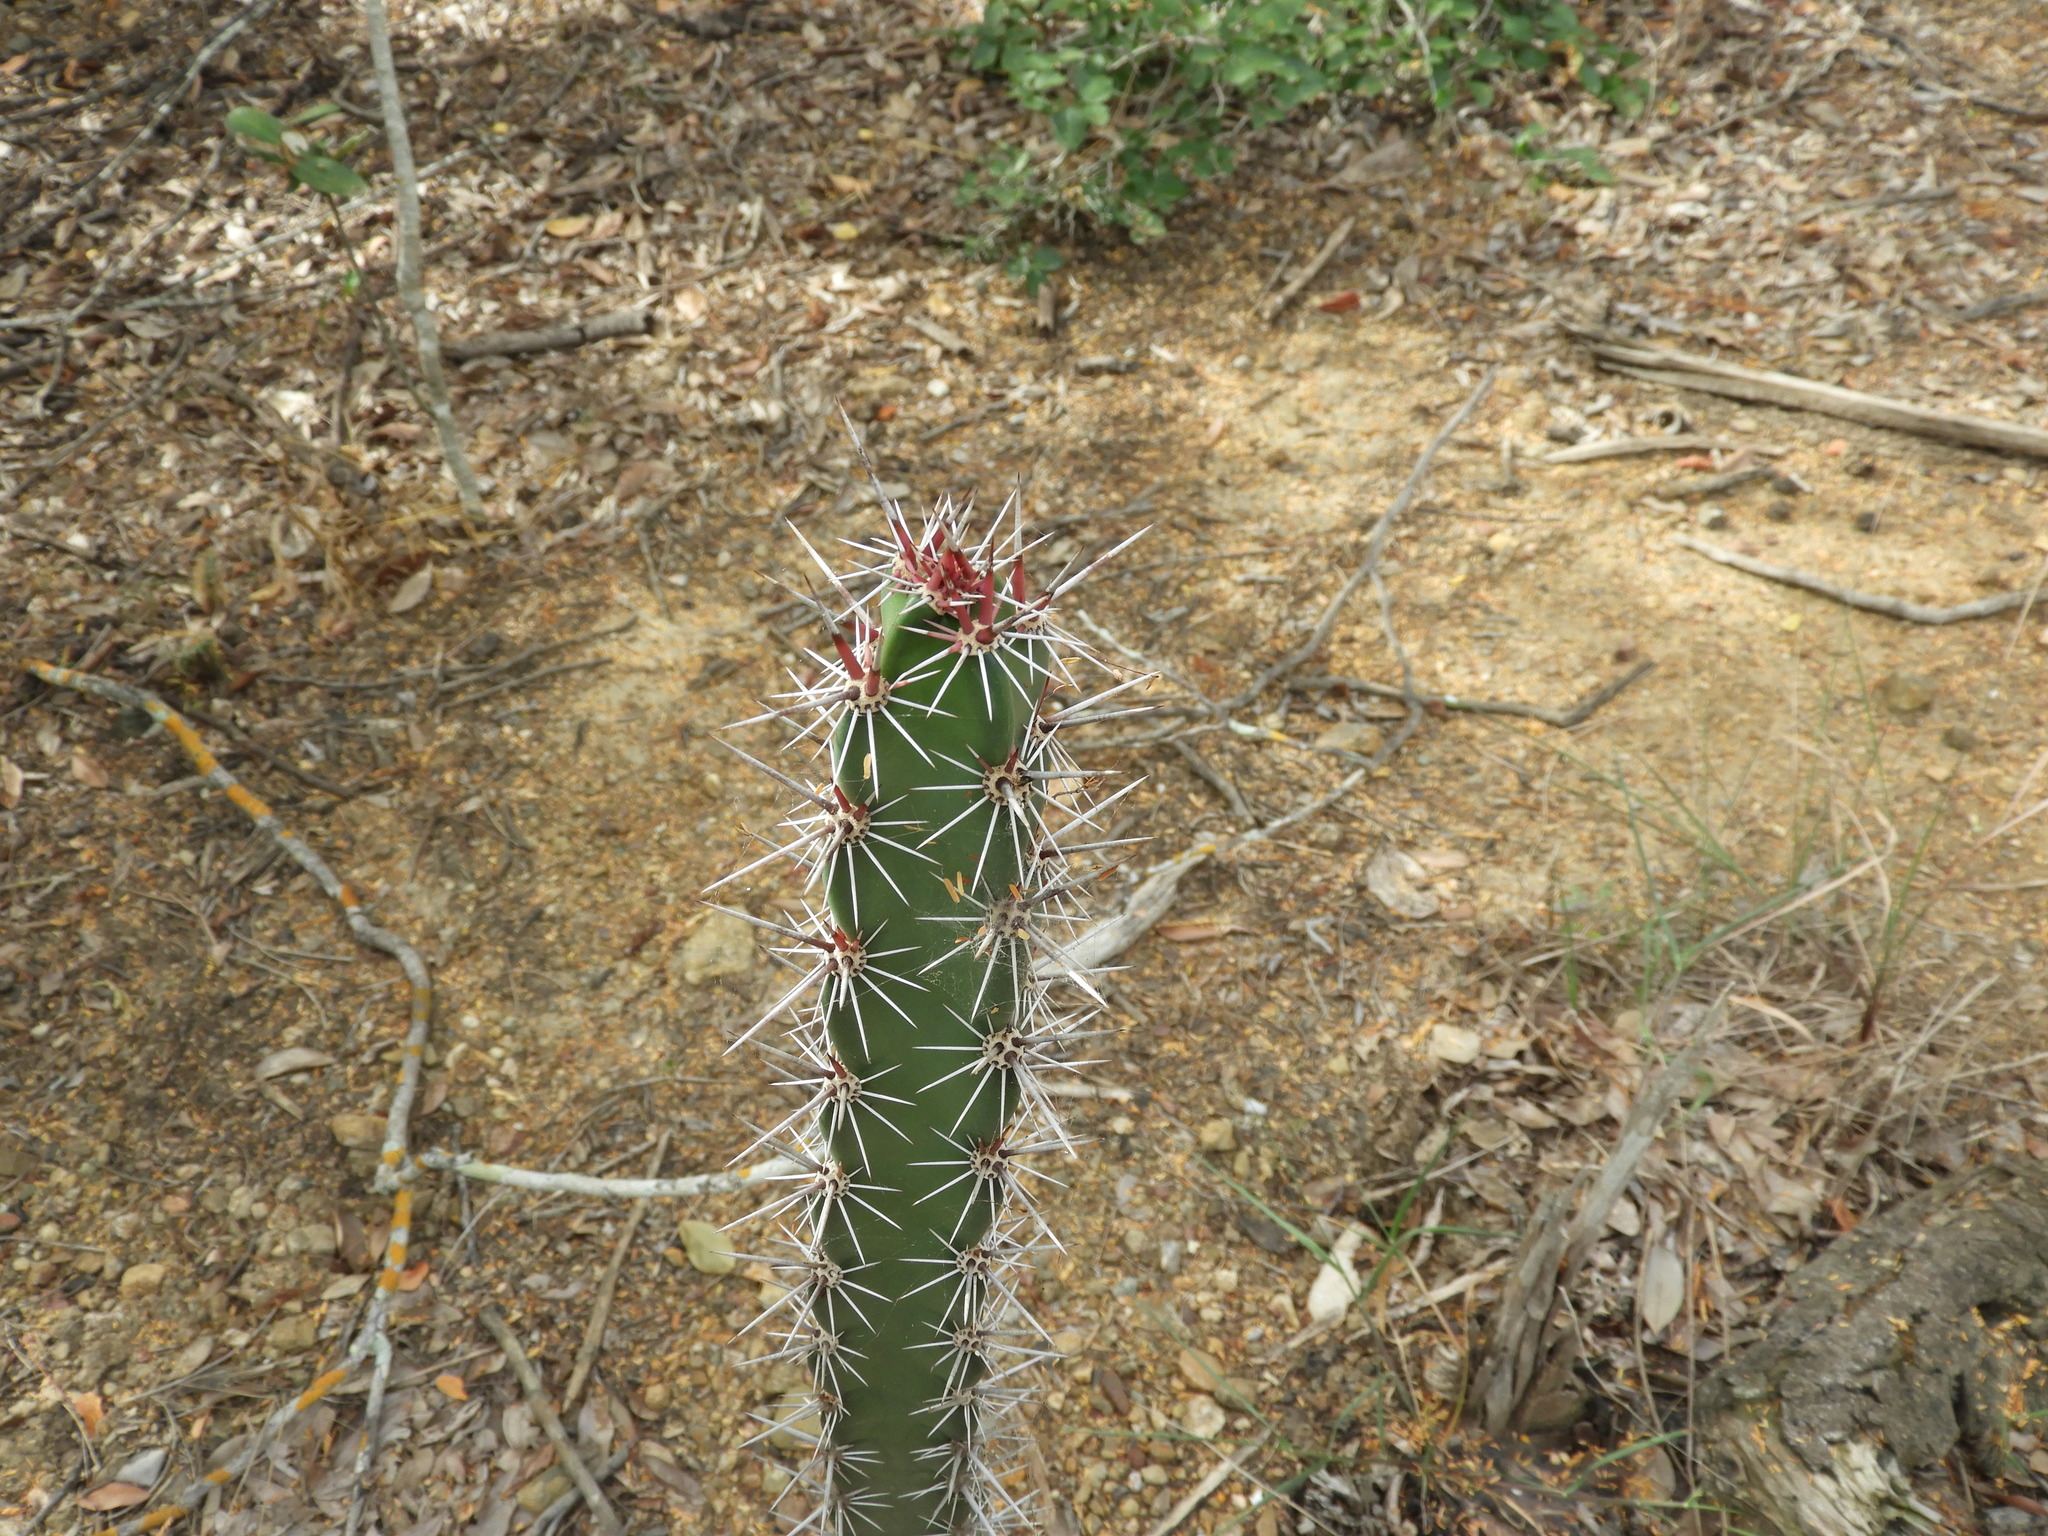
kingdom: Plantae
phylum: Tracheophyta
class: Magnoliopsida
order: Caryophyllales
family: Cactaceae
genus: Stenocereus
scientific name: Stenocereus kerberi
